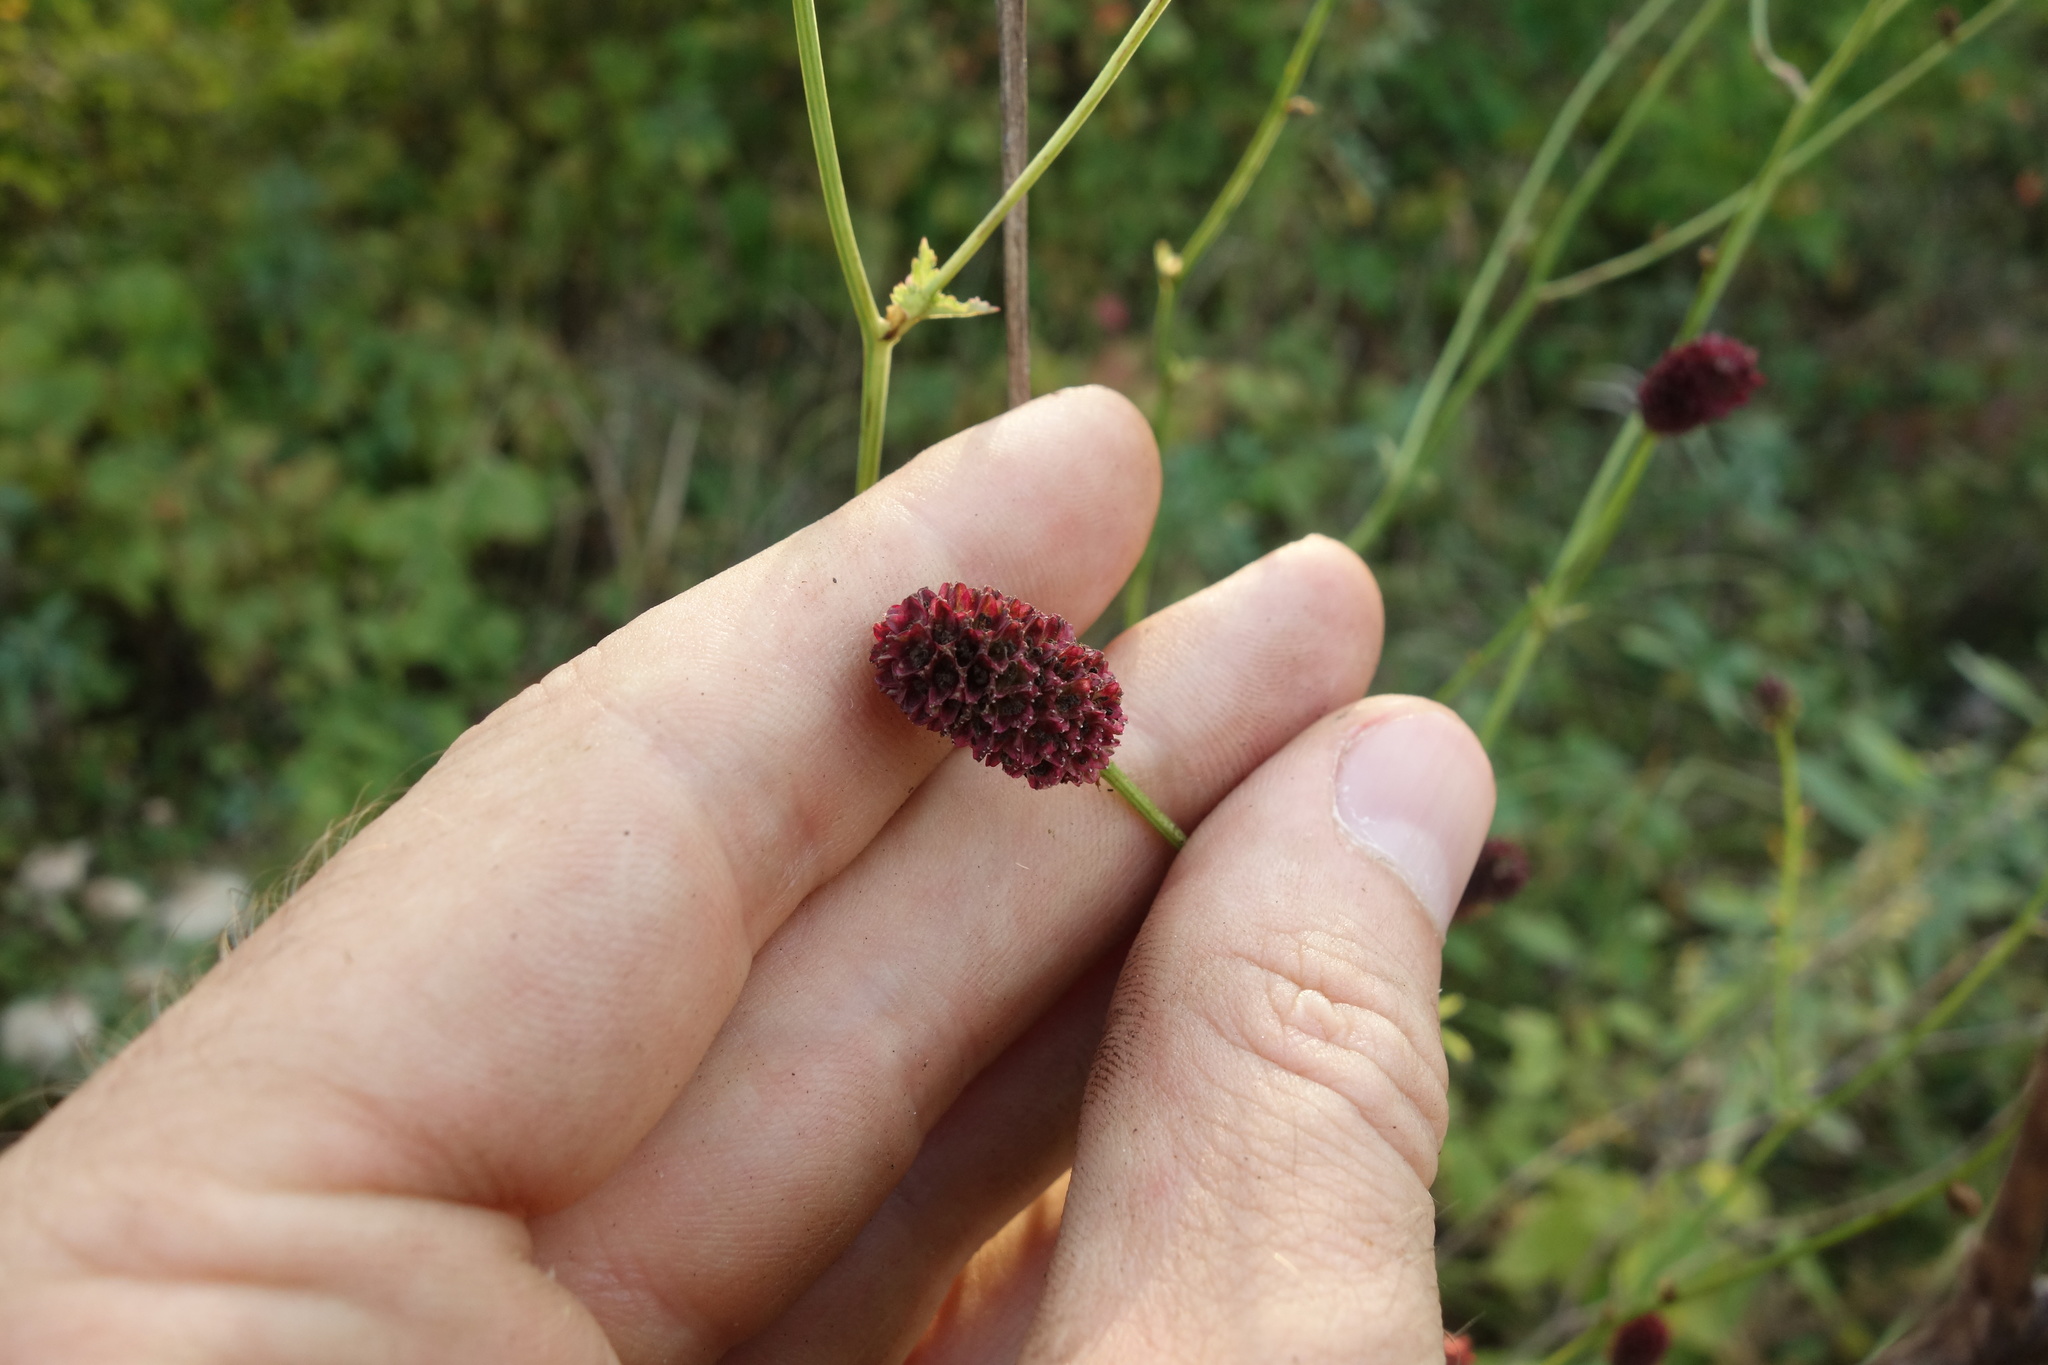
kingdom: Plantae
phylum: Tracheophyta
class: Magnoliopsida
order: Rosales
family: Rosaceae
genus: Sanguisorba
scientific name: Sanguisorba officinalis
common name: Great burnet
